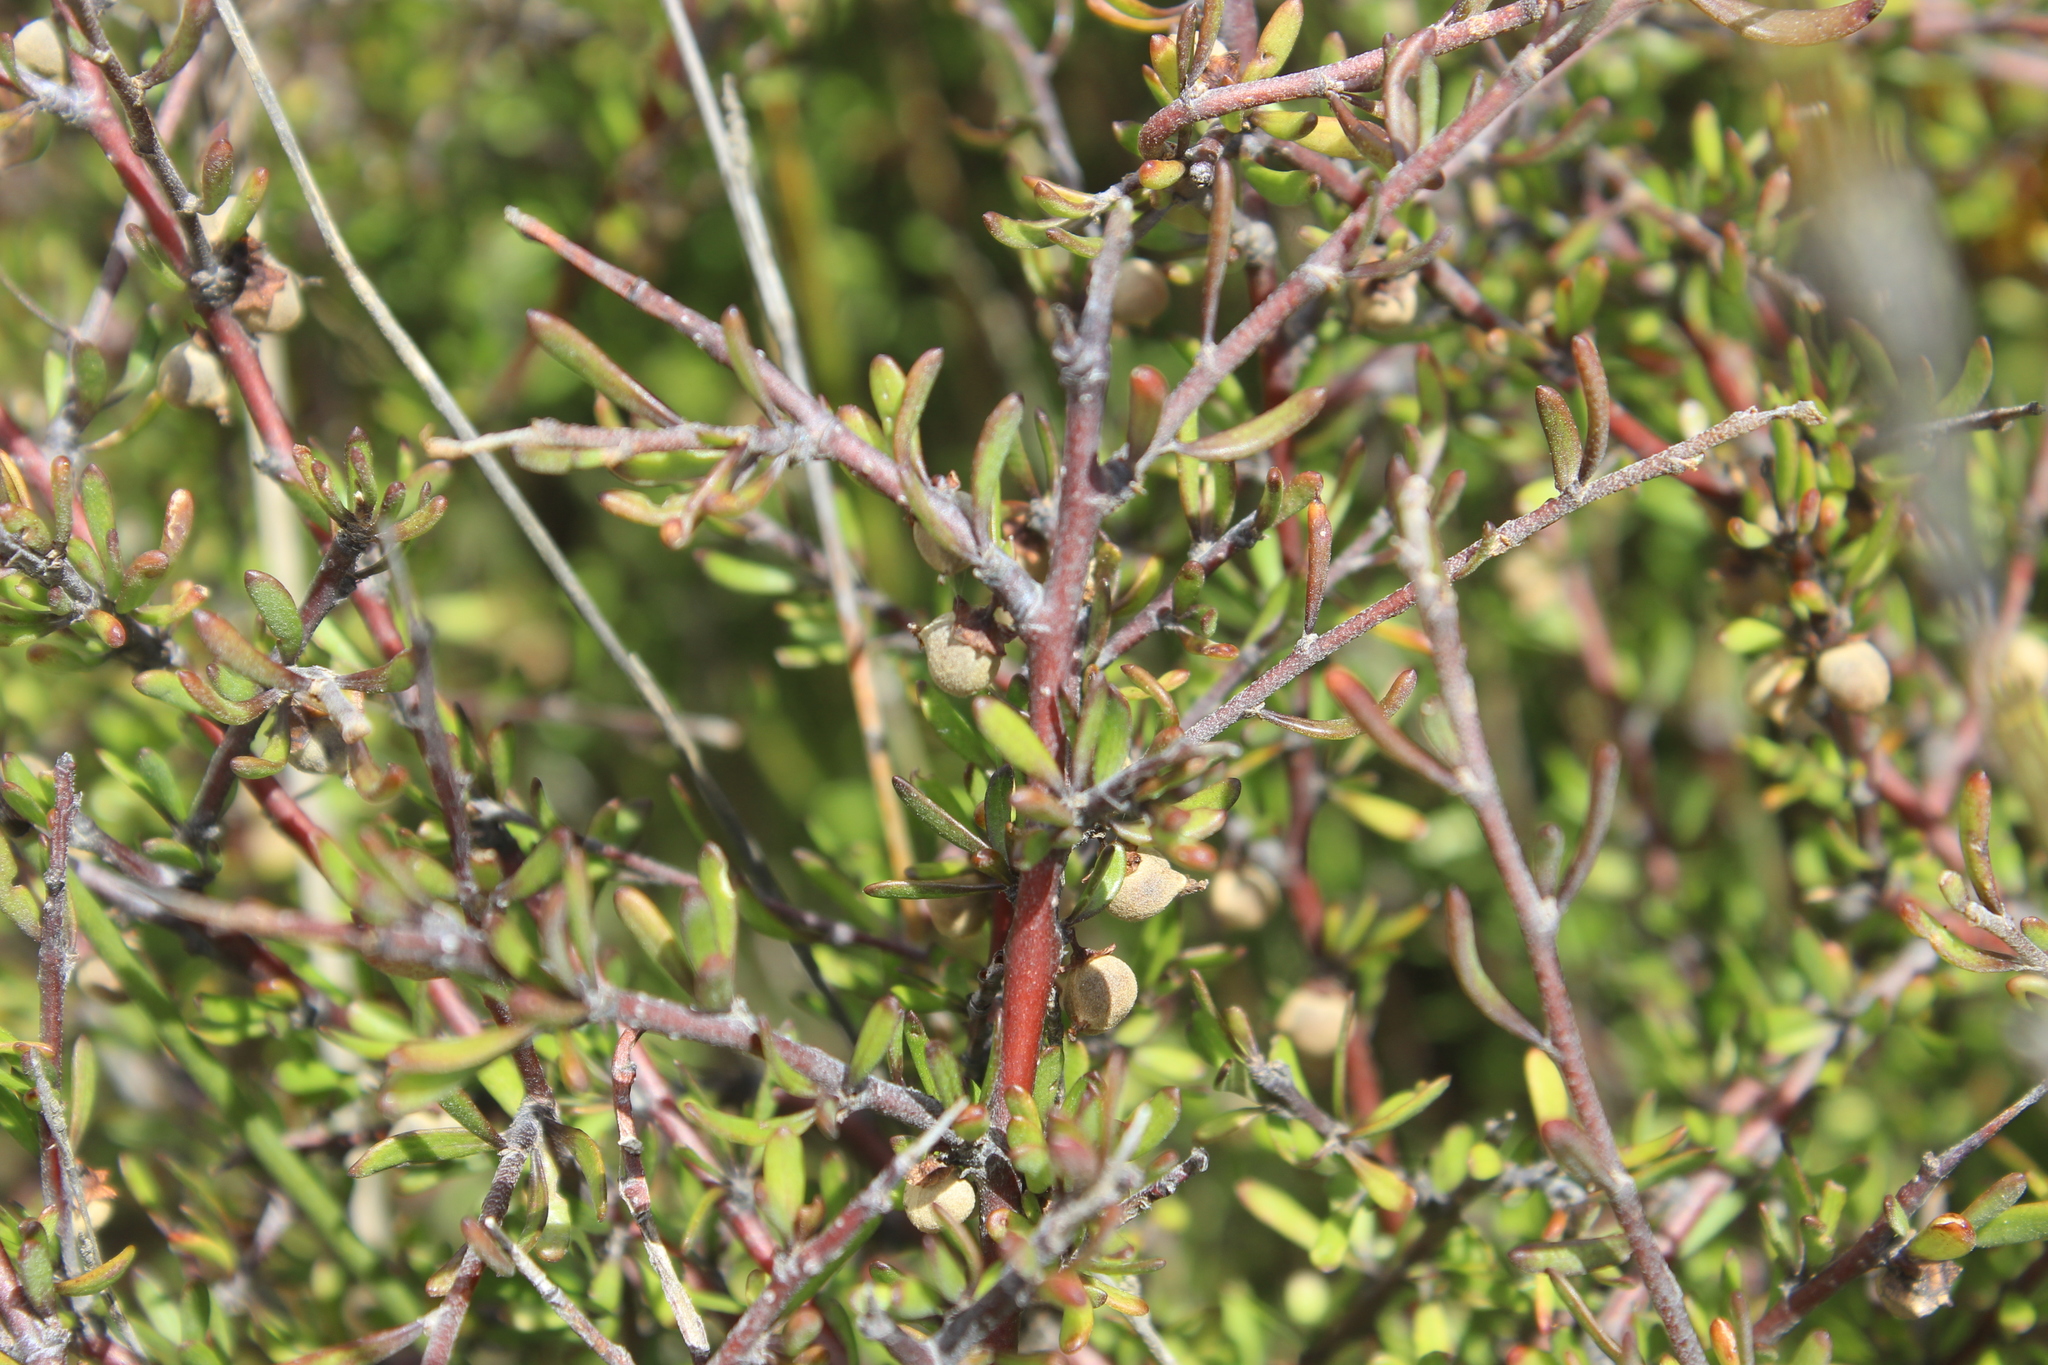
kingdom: Plantae
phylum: Tracheophyta
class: Magnoliopsida
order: Malvales
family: Malvaceae
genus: Plagianthus
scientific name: Plagianthus divaricatus
